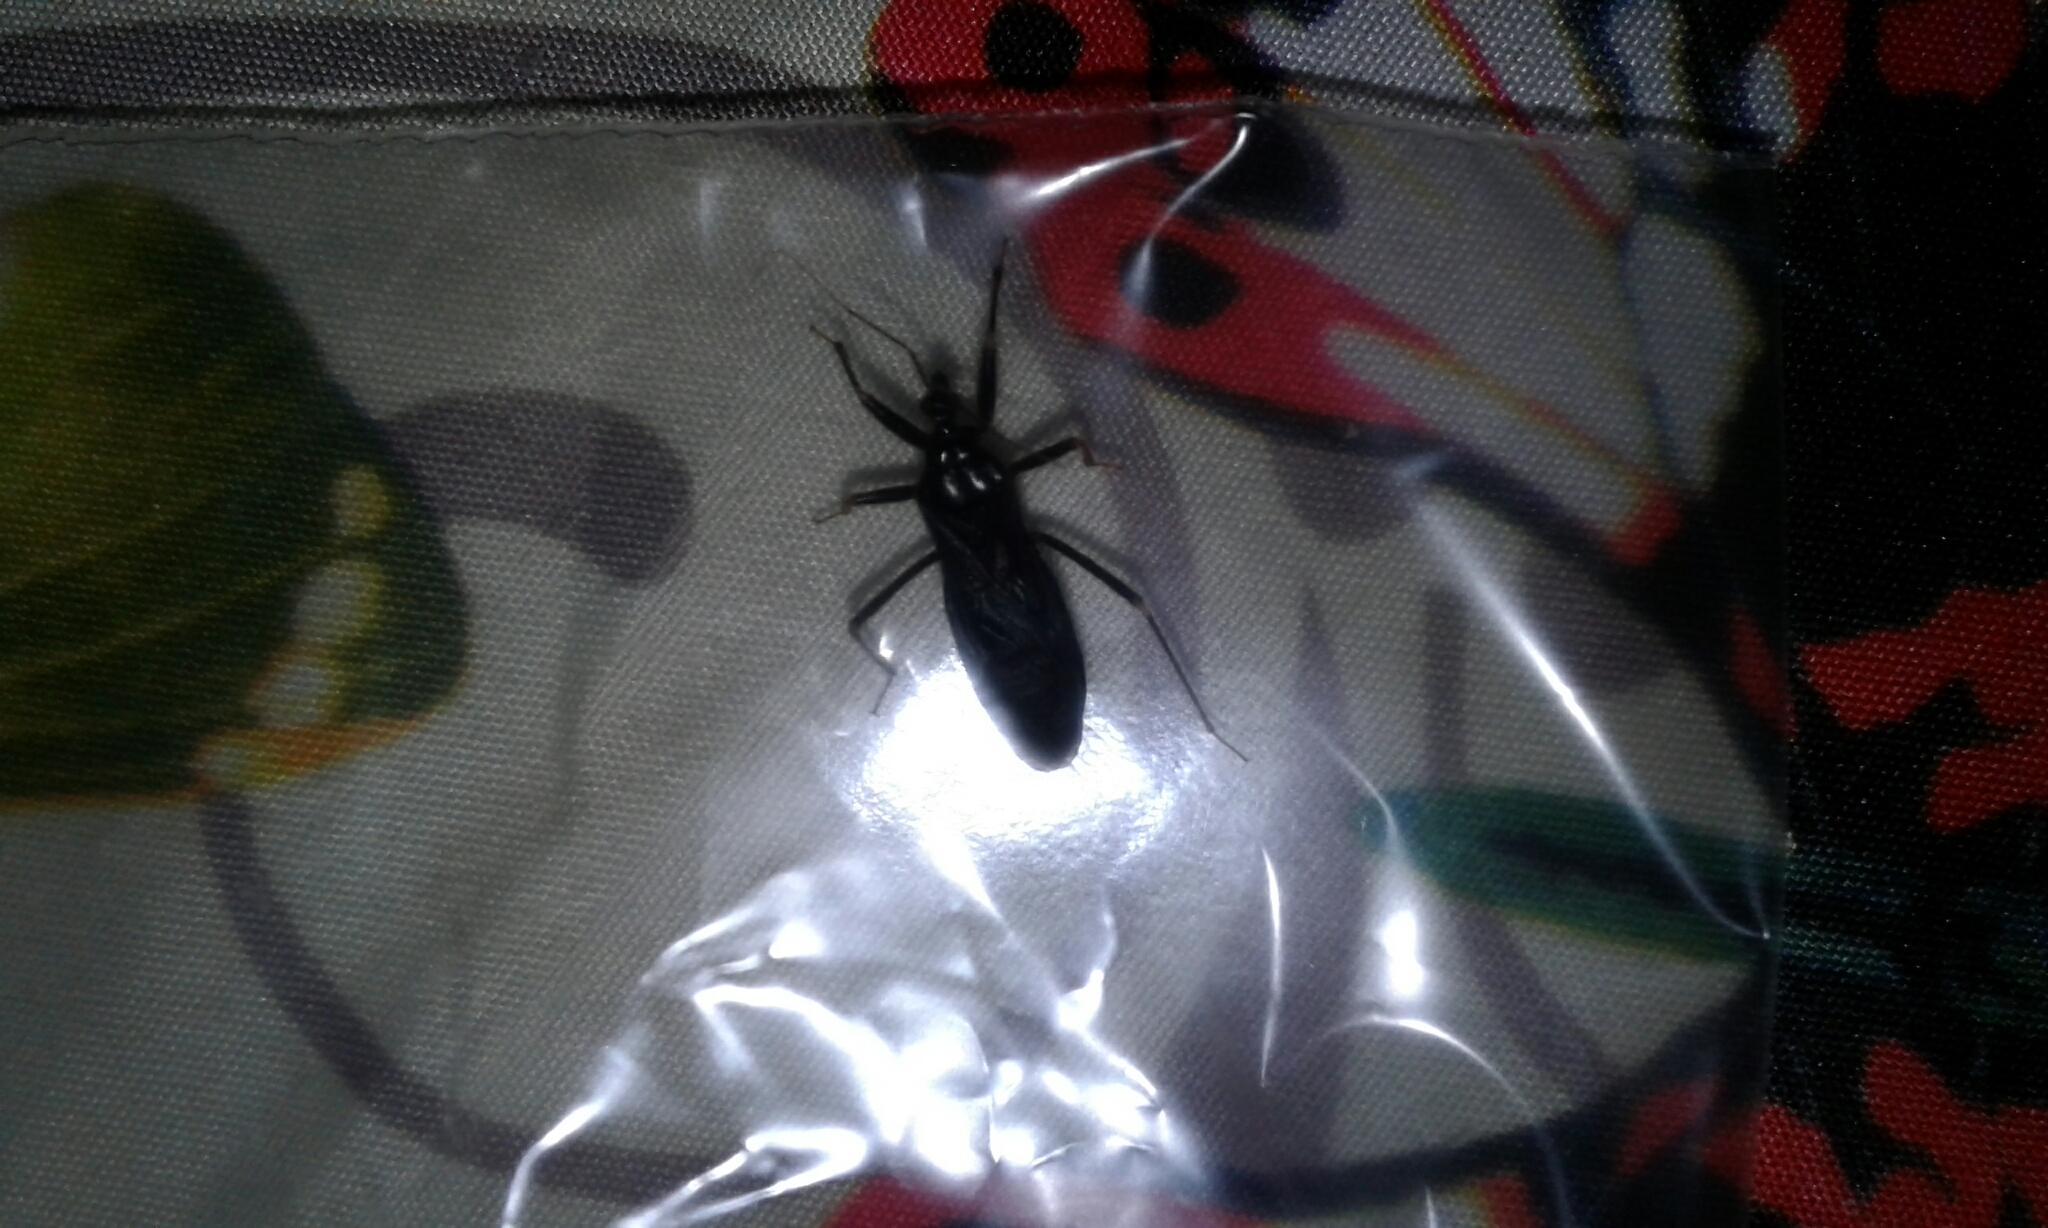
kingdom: Animalia
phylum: Arthropoda
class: Insecta
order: Hemiptera
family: Reduviidae
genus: Reduvius
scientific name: Reduvius personatus
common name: Masked hunter
